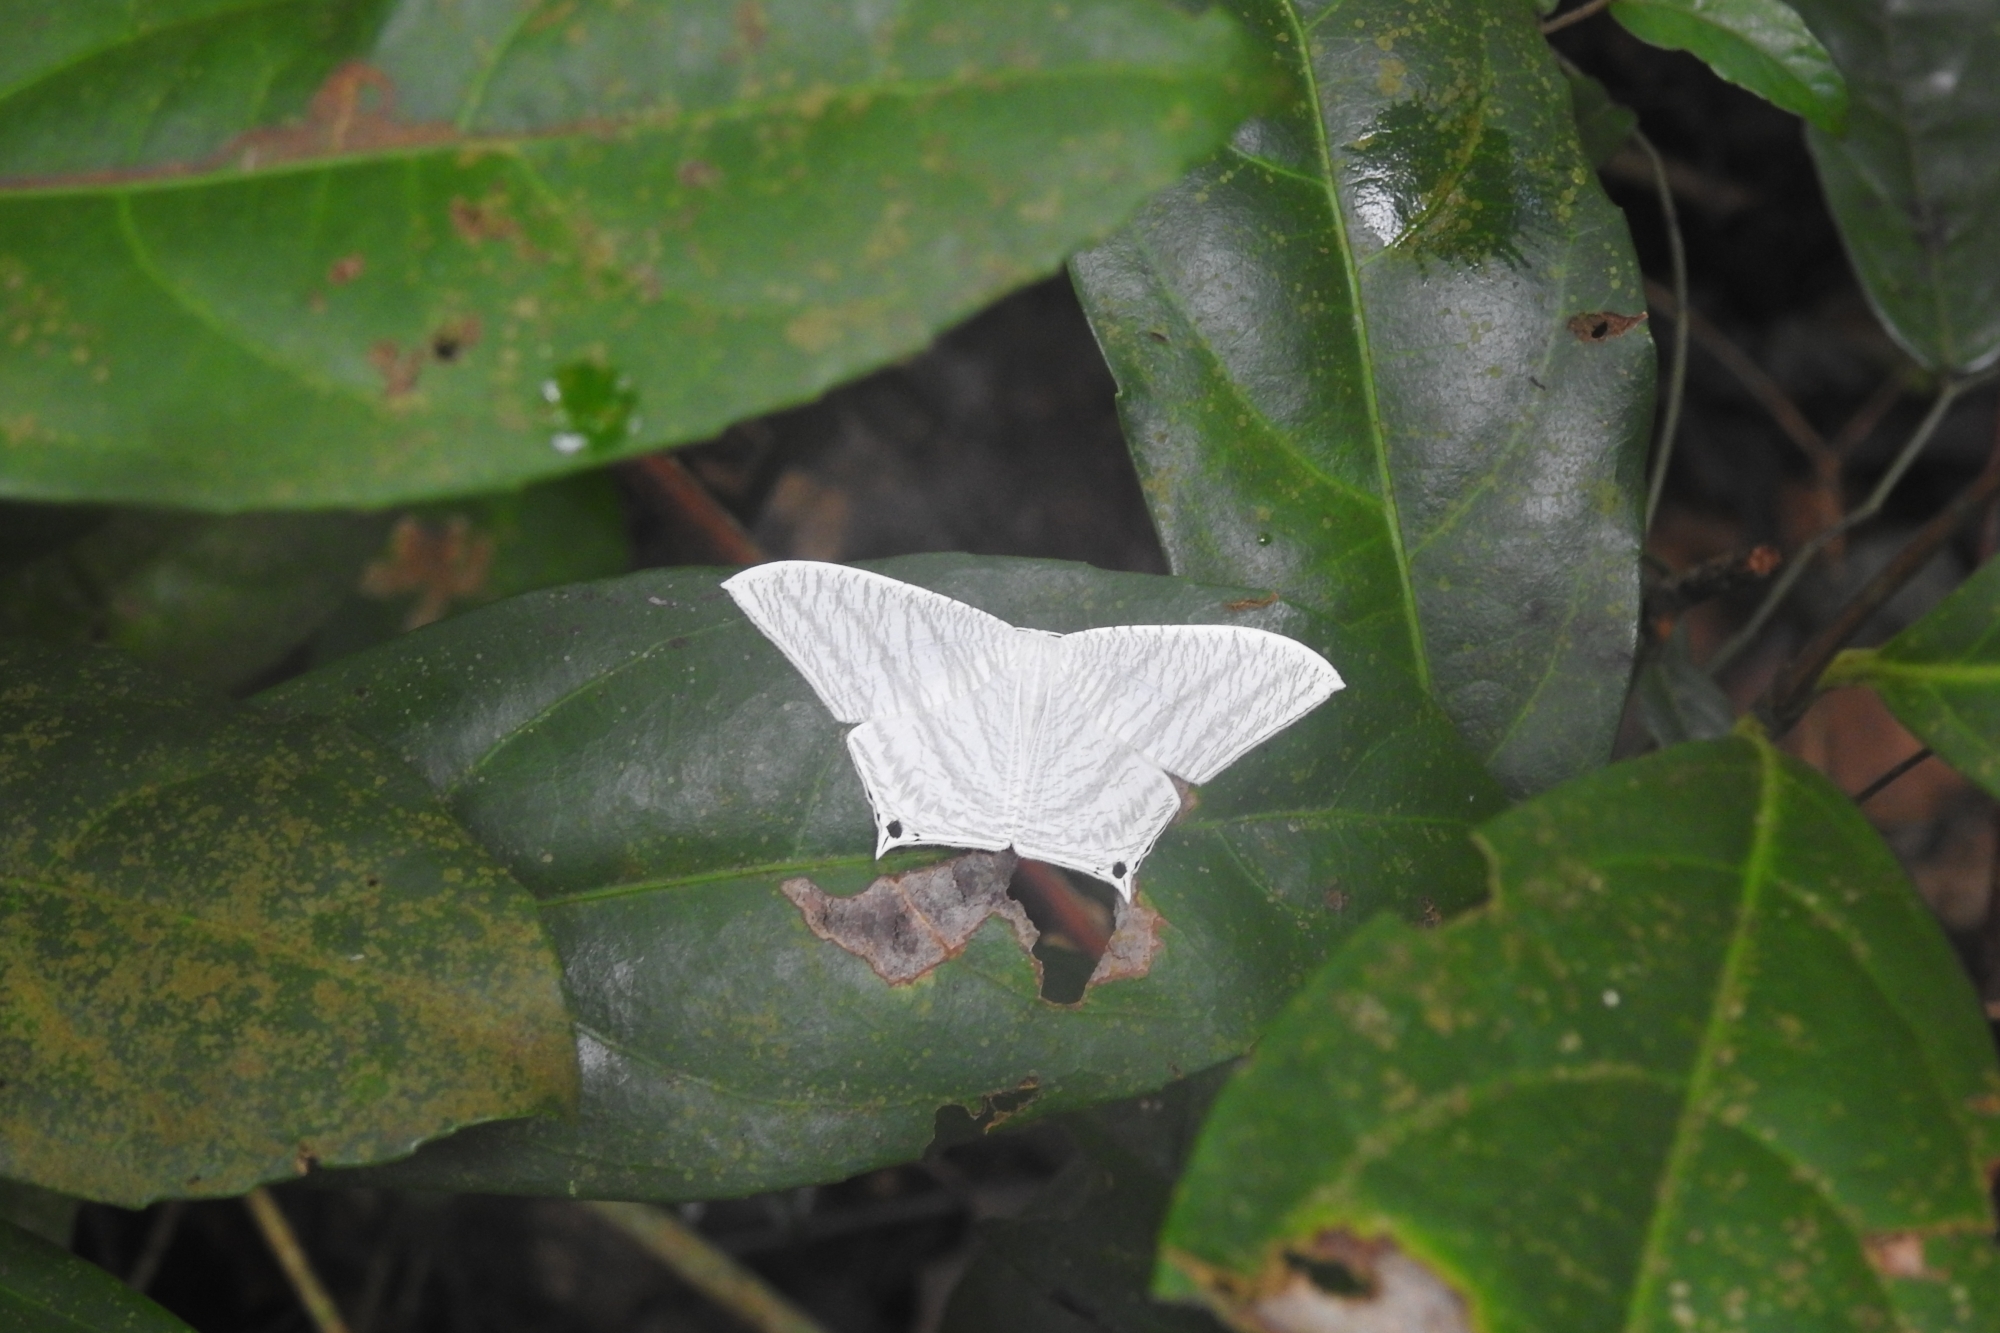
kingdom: Animalia
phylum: Arthropoda
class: Insecta
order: Lepidoptera
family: Uraniidae
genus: Micronia
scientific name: Micronia aculeata
